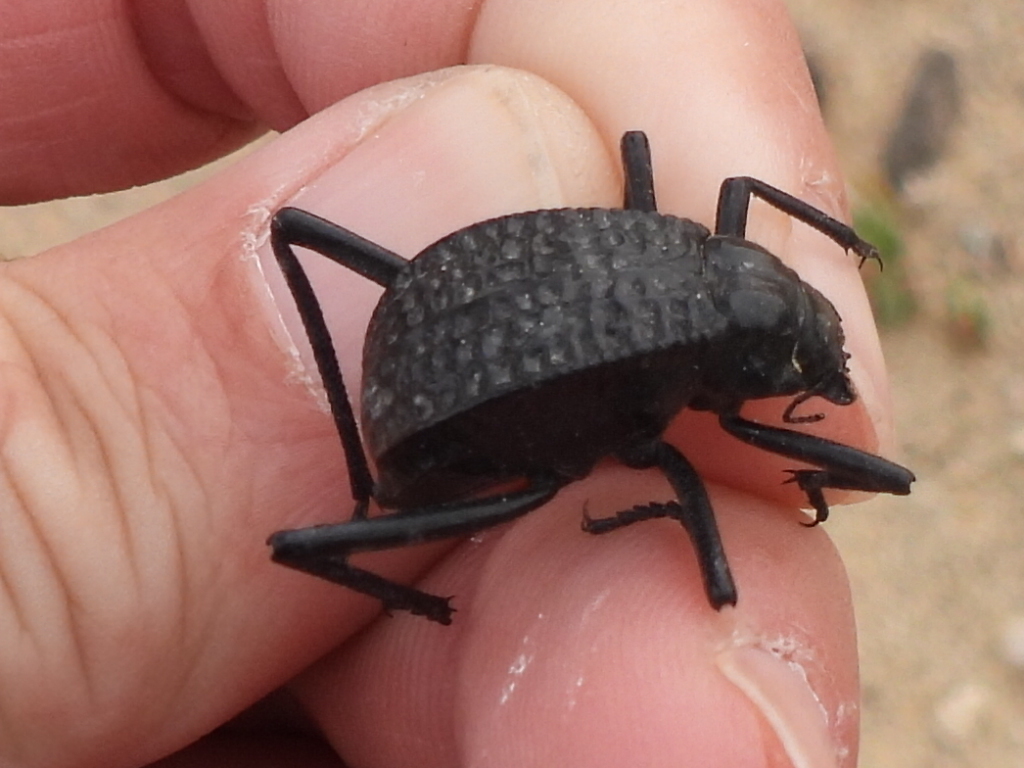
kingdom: Animalia
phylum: Arthropoda
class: Insecta
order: Coleoptera
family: Tenebrionidae
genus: Adesmia
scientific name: Adesmia cancellata
